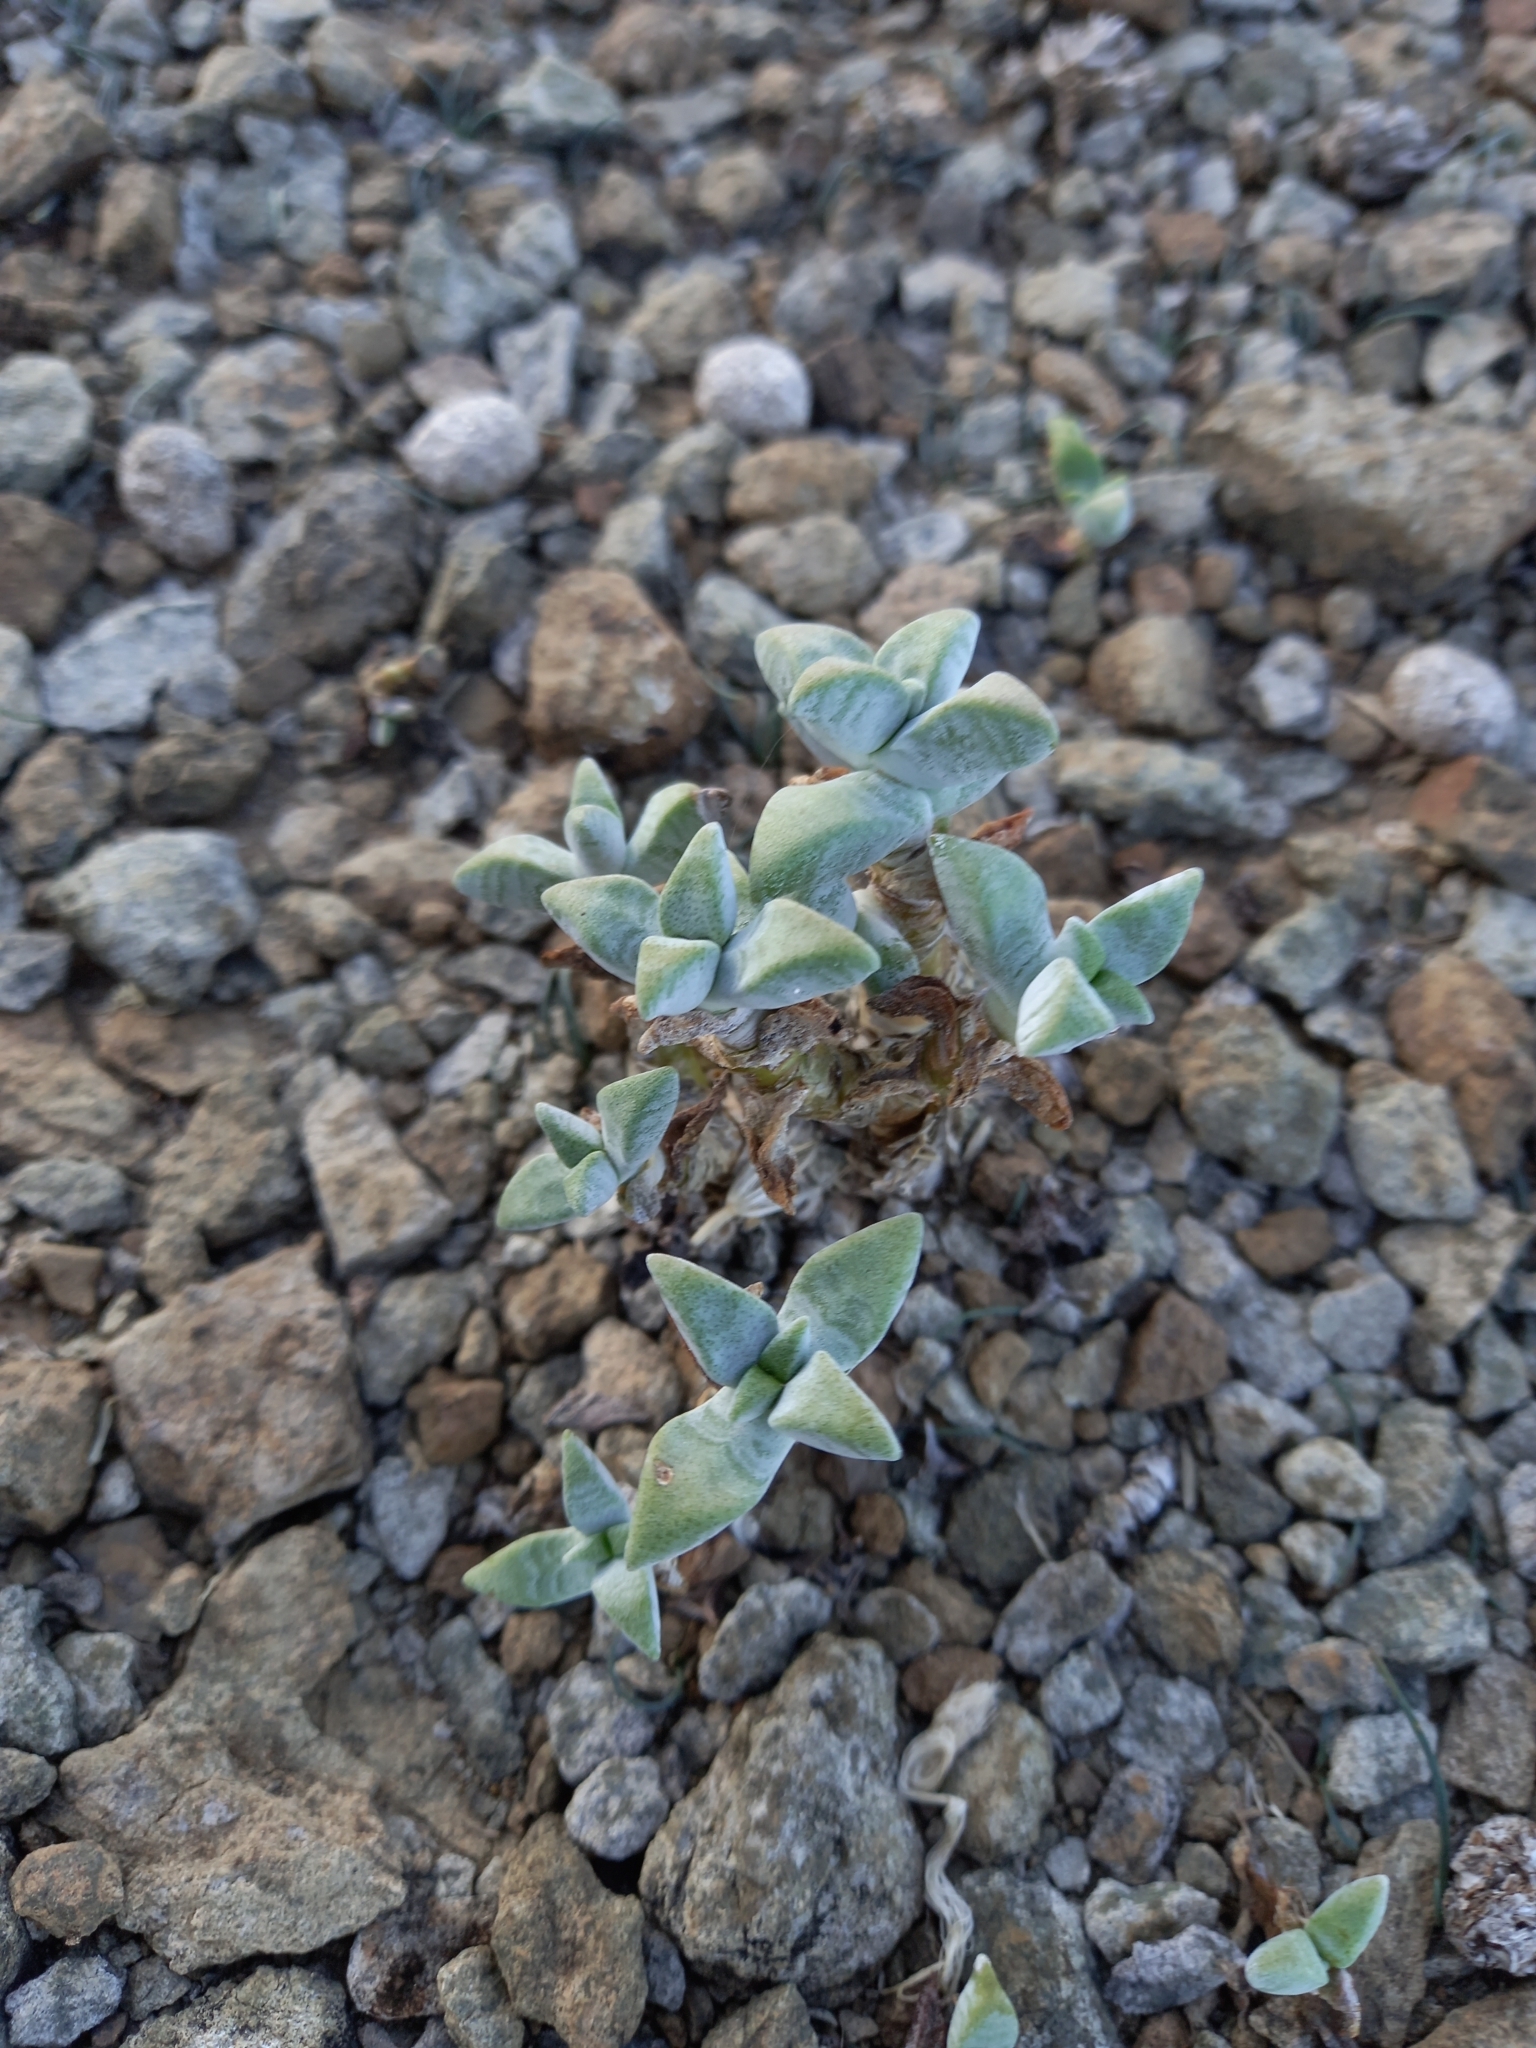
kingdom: Plantae
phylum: Tracheophyta
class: Magnoliopsida
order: Saxifragales
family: Crassulaceae
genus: Crassula
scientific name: Crassula deltoidea
